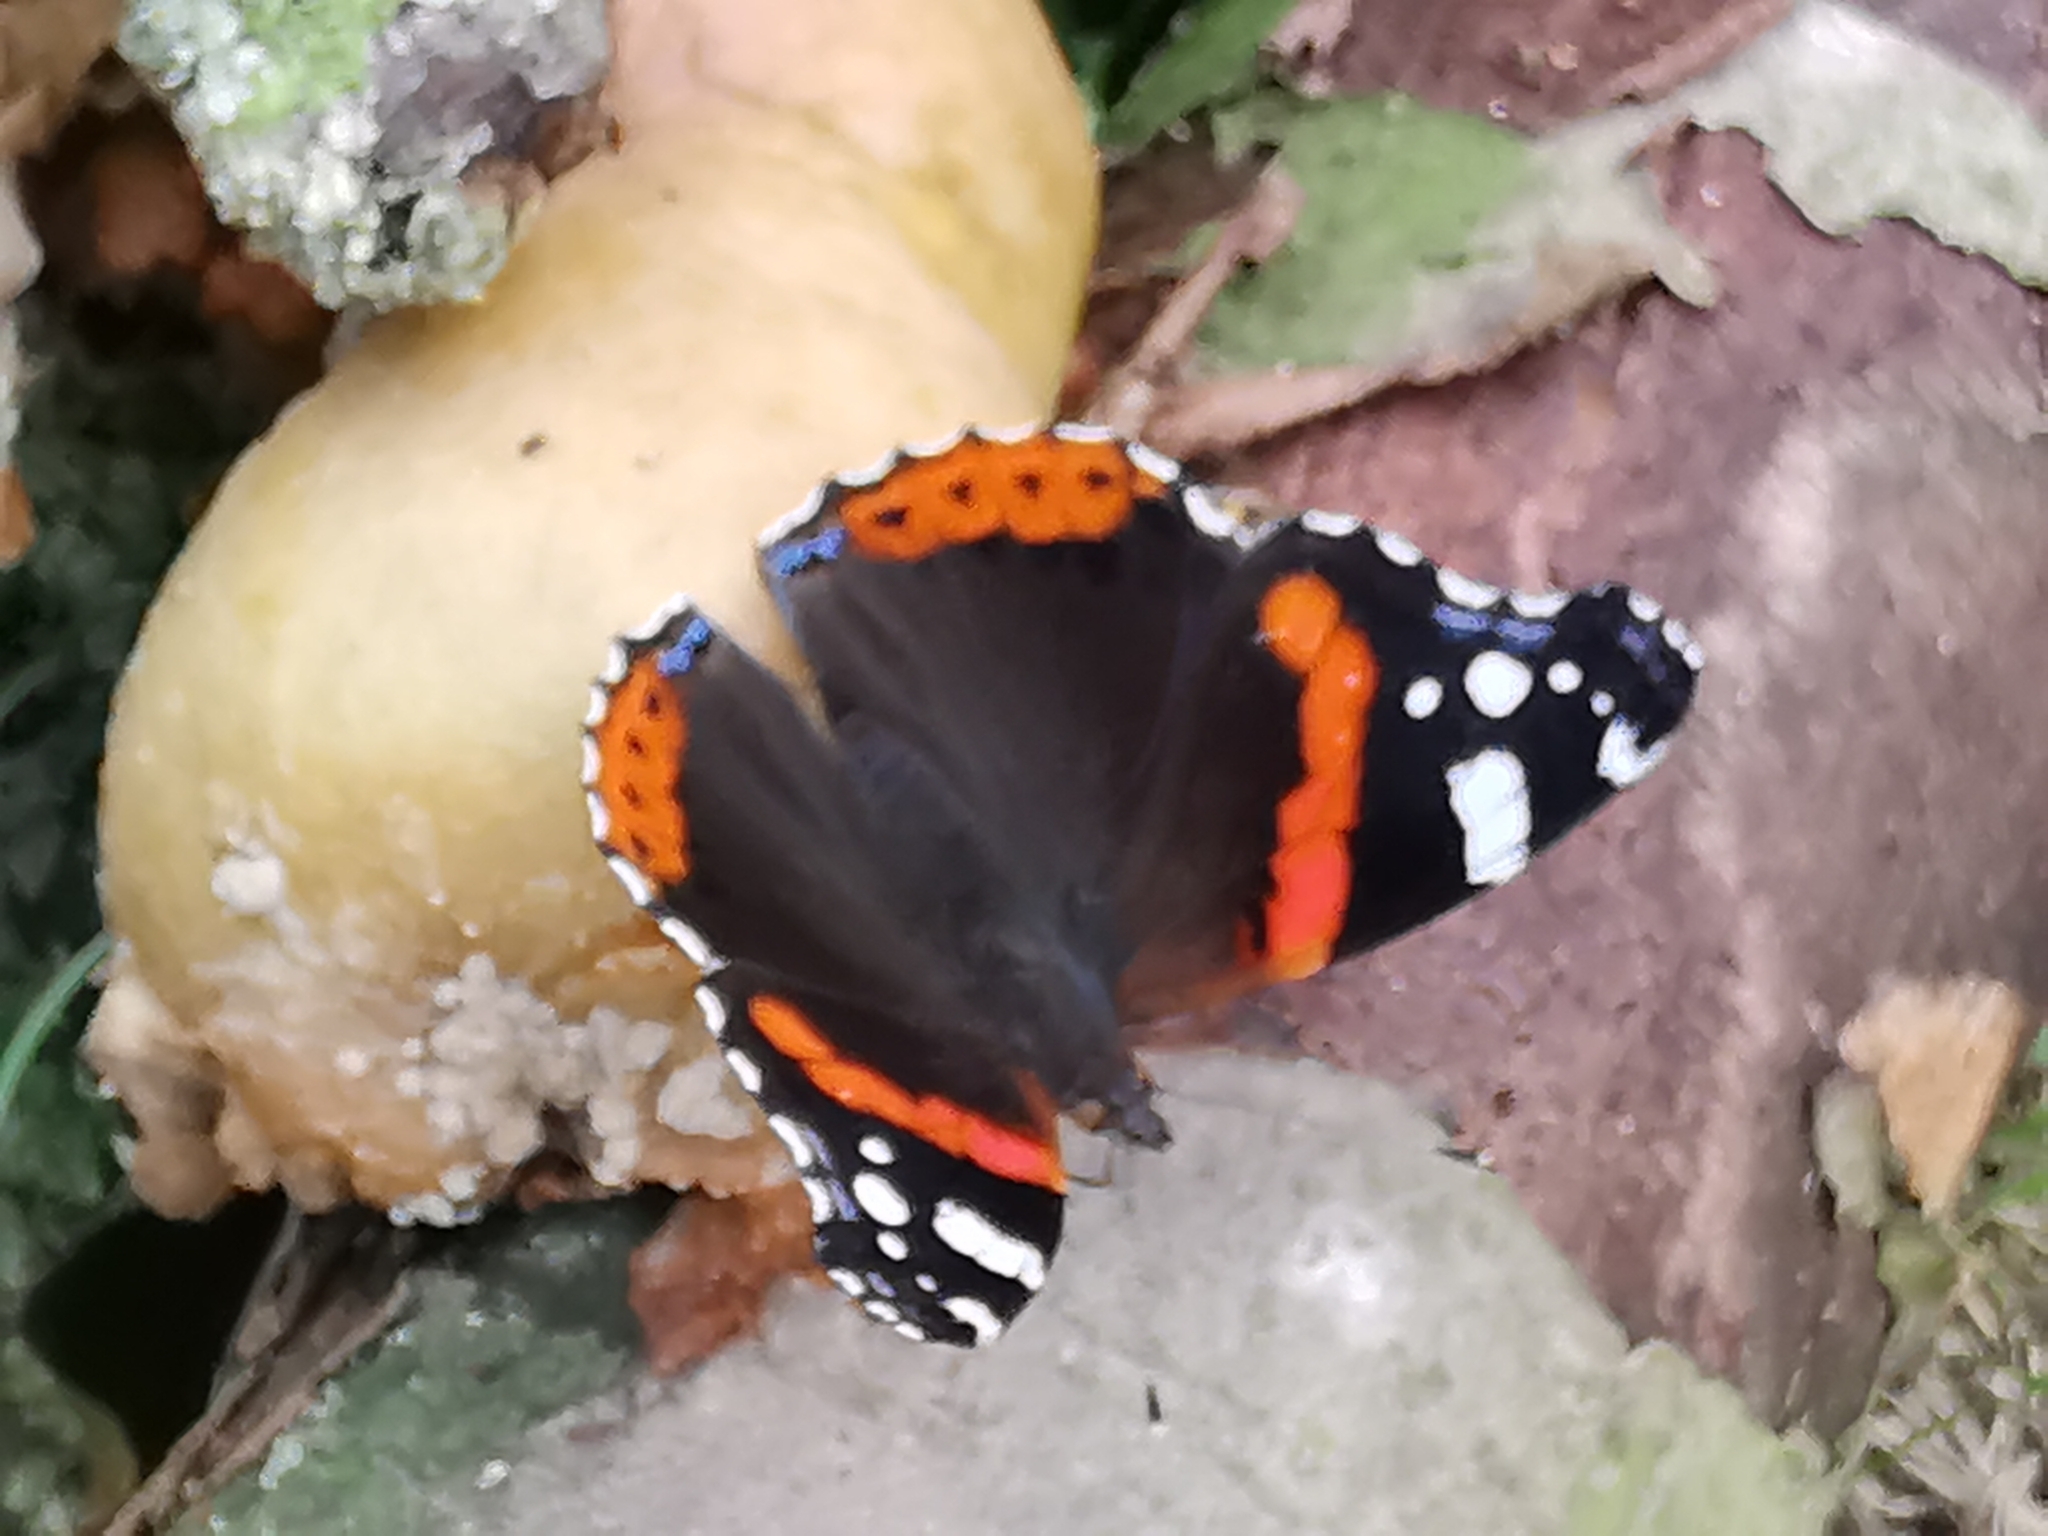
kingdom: Animalia
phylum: Arthropoda
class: Insecta
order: Lepidoptera
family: Nymphalidae
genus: Vanessa
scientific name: Vanessa atalanta
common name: Red admiral
